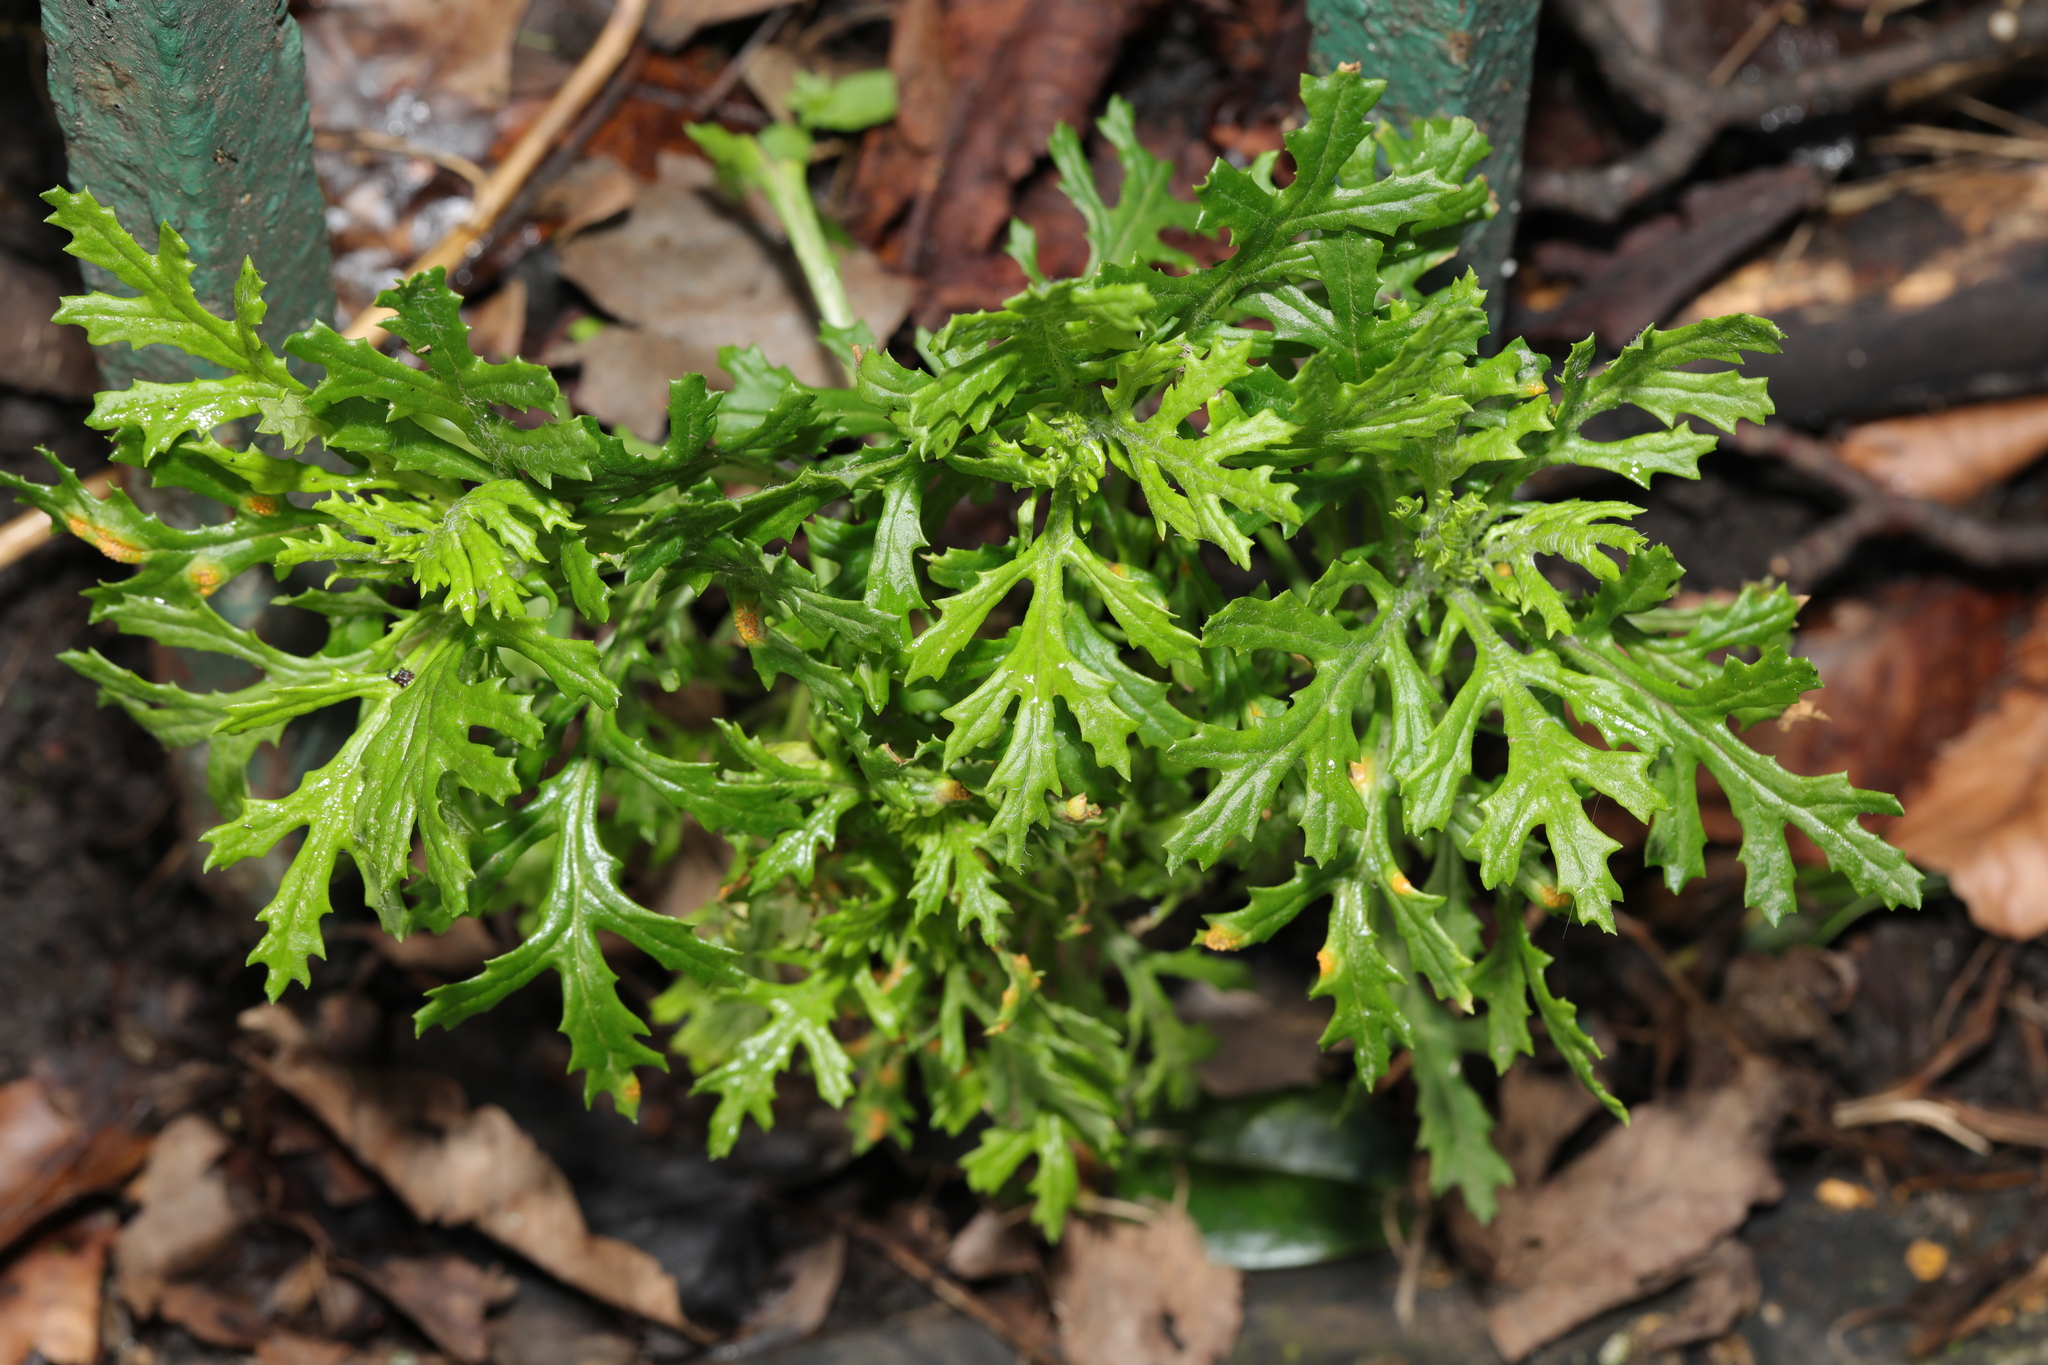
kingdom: Plantae
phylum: Tracheophyta
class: Magnoliopsida
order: Asterales
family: Asteraceae
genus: Senecio
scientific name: Senecio squalidus
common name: Oxford ragwort
